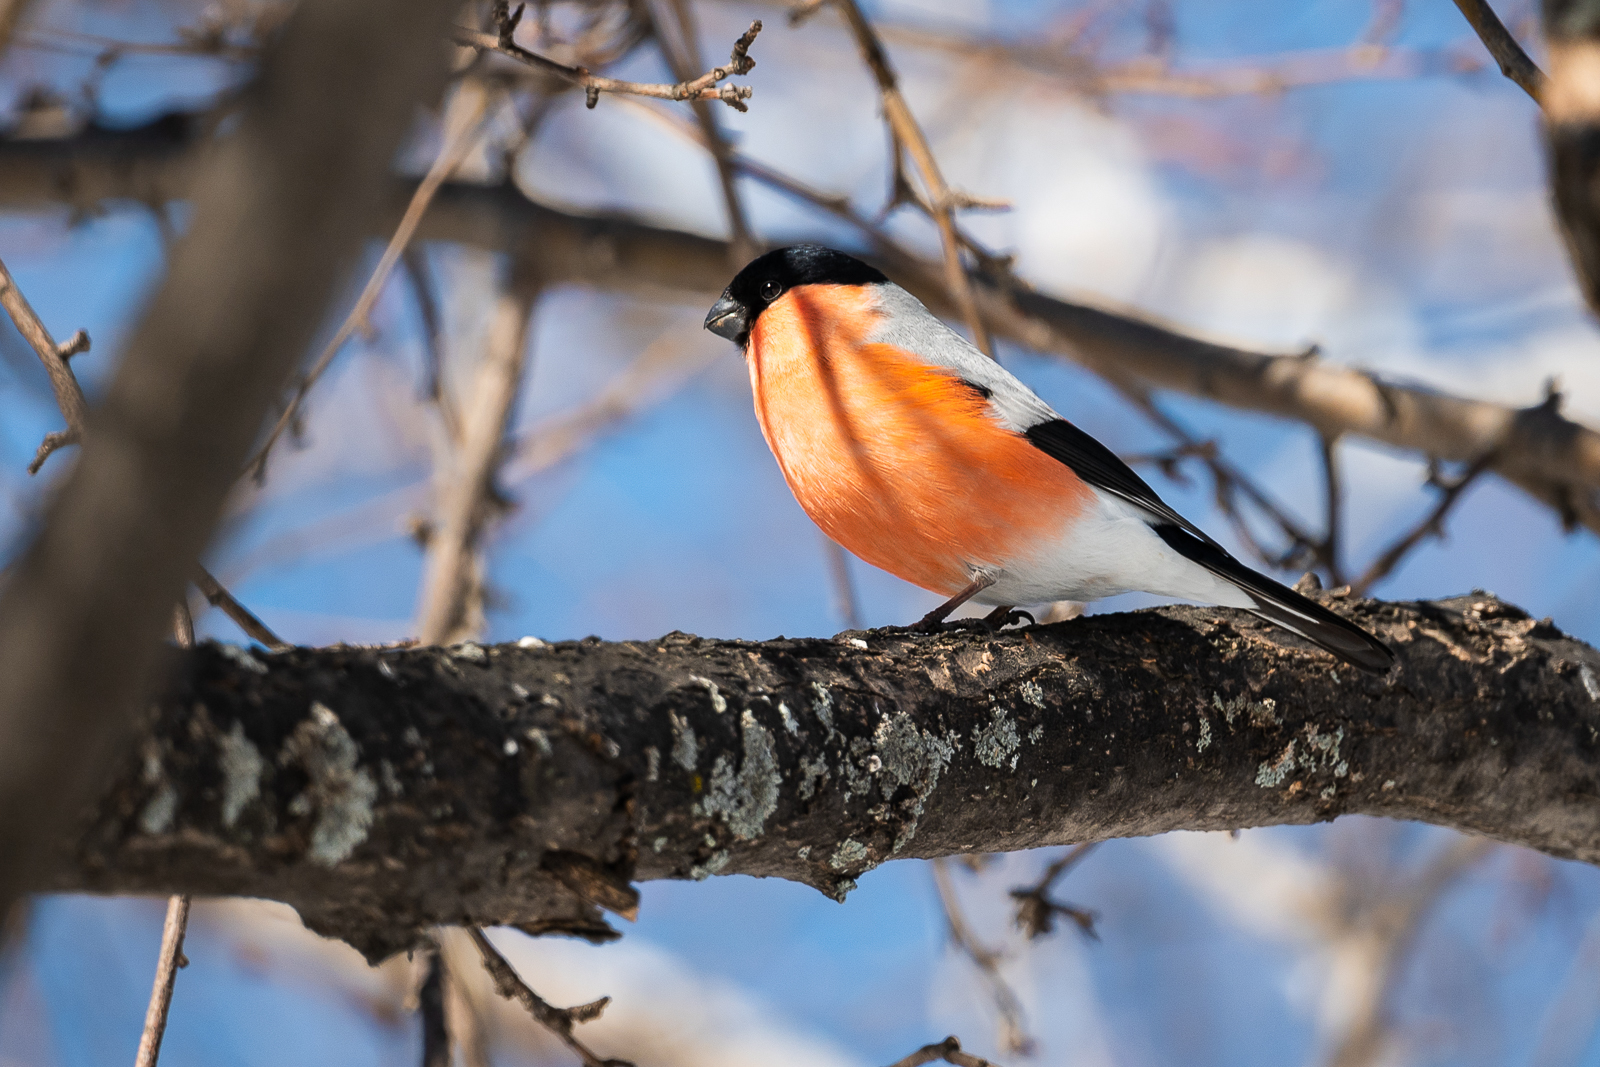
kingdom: Animalia
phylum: Chordata
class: Aves
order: Passeriformes
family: Fringillidae
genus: Pyrrhula
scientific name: Pyrrhula pyrrhula
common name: Eurasian bullfinch
